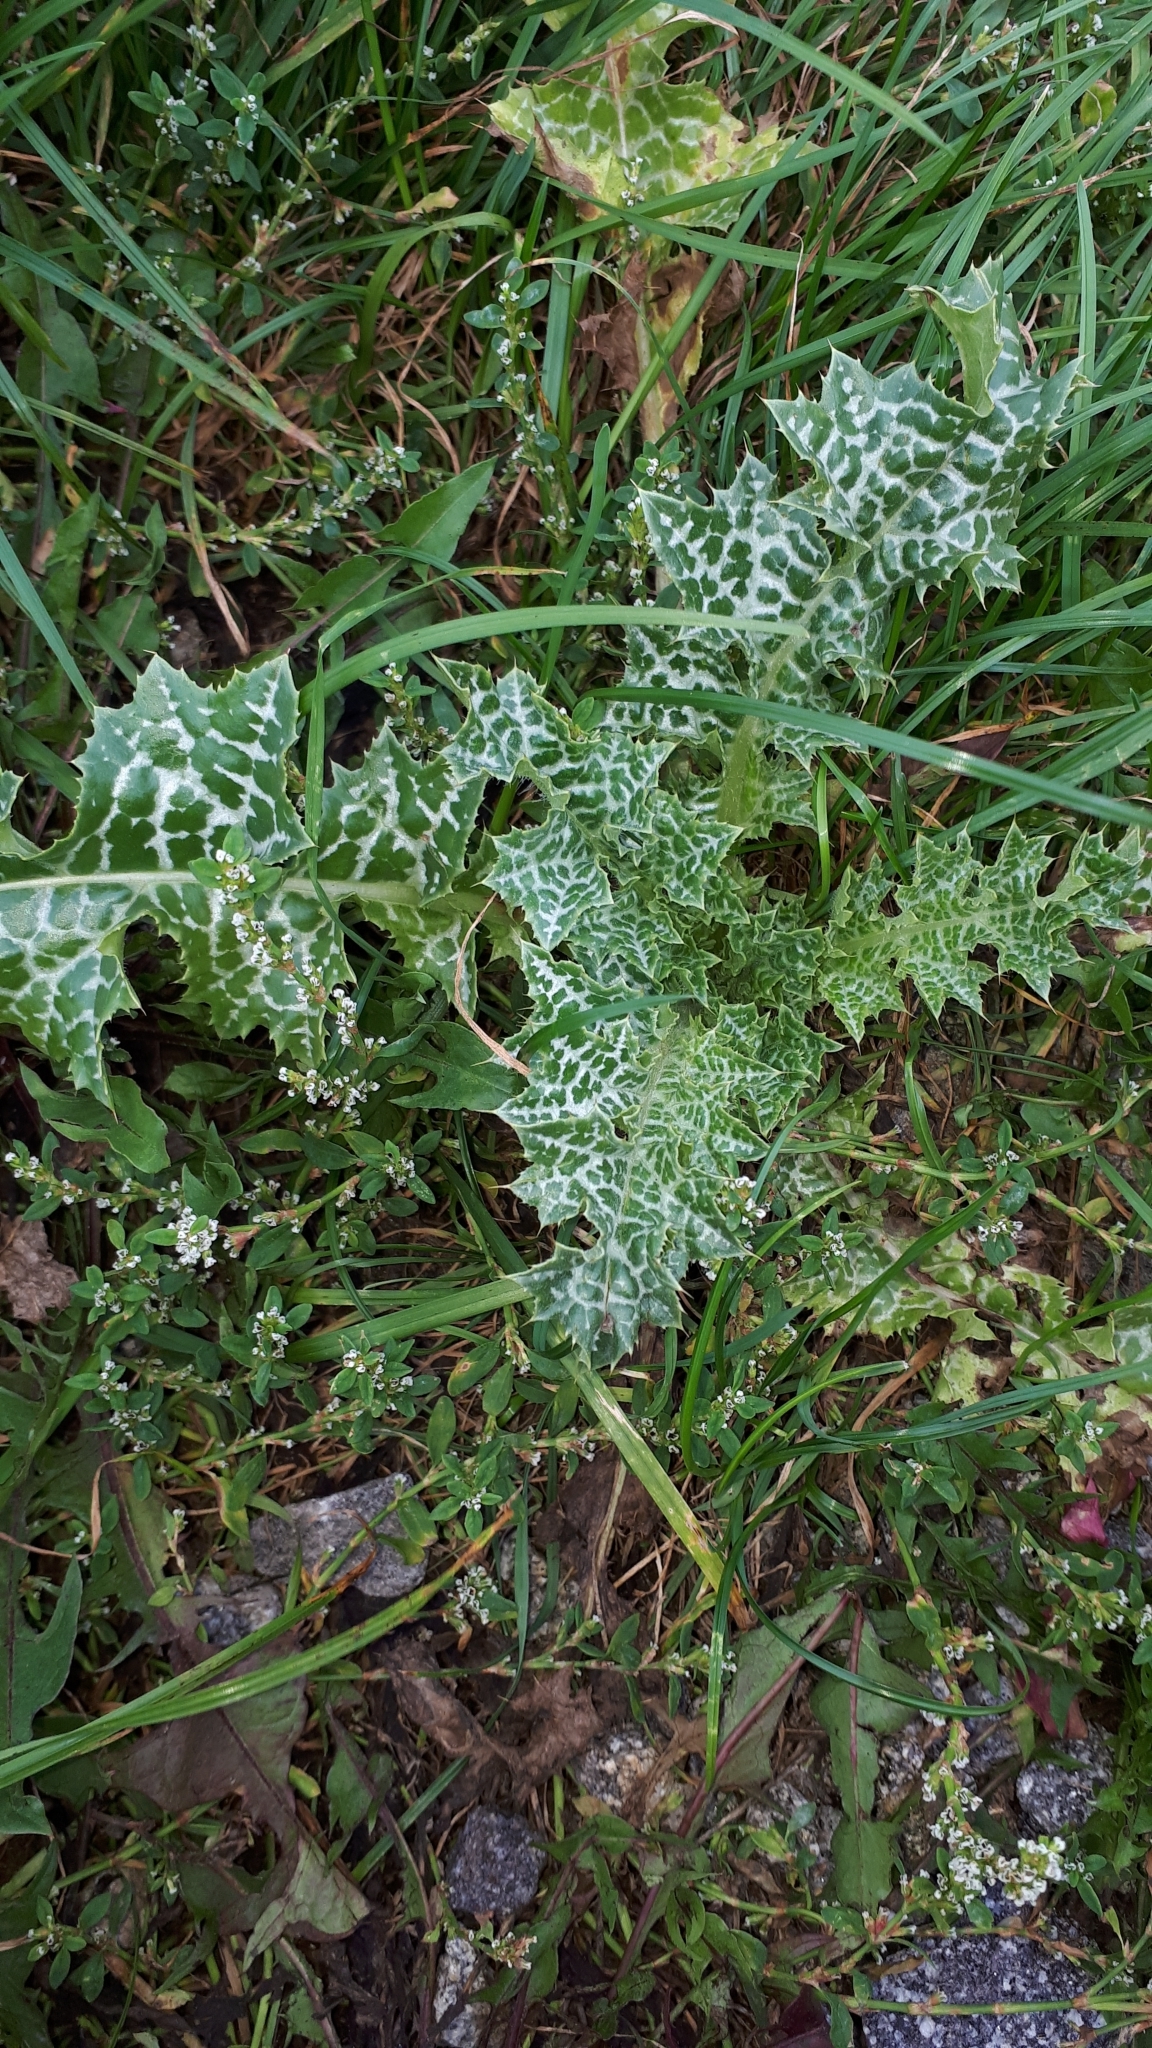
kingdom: Plantae
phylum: Tracheophyta
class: Magnoliopsida
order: Asterales
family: Asteraceae
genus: Silybum
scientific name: Silybum marianum
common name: Milk thistle
